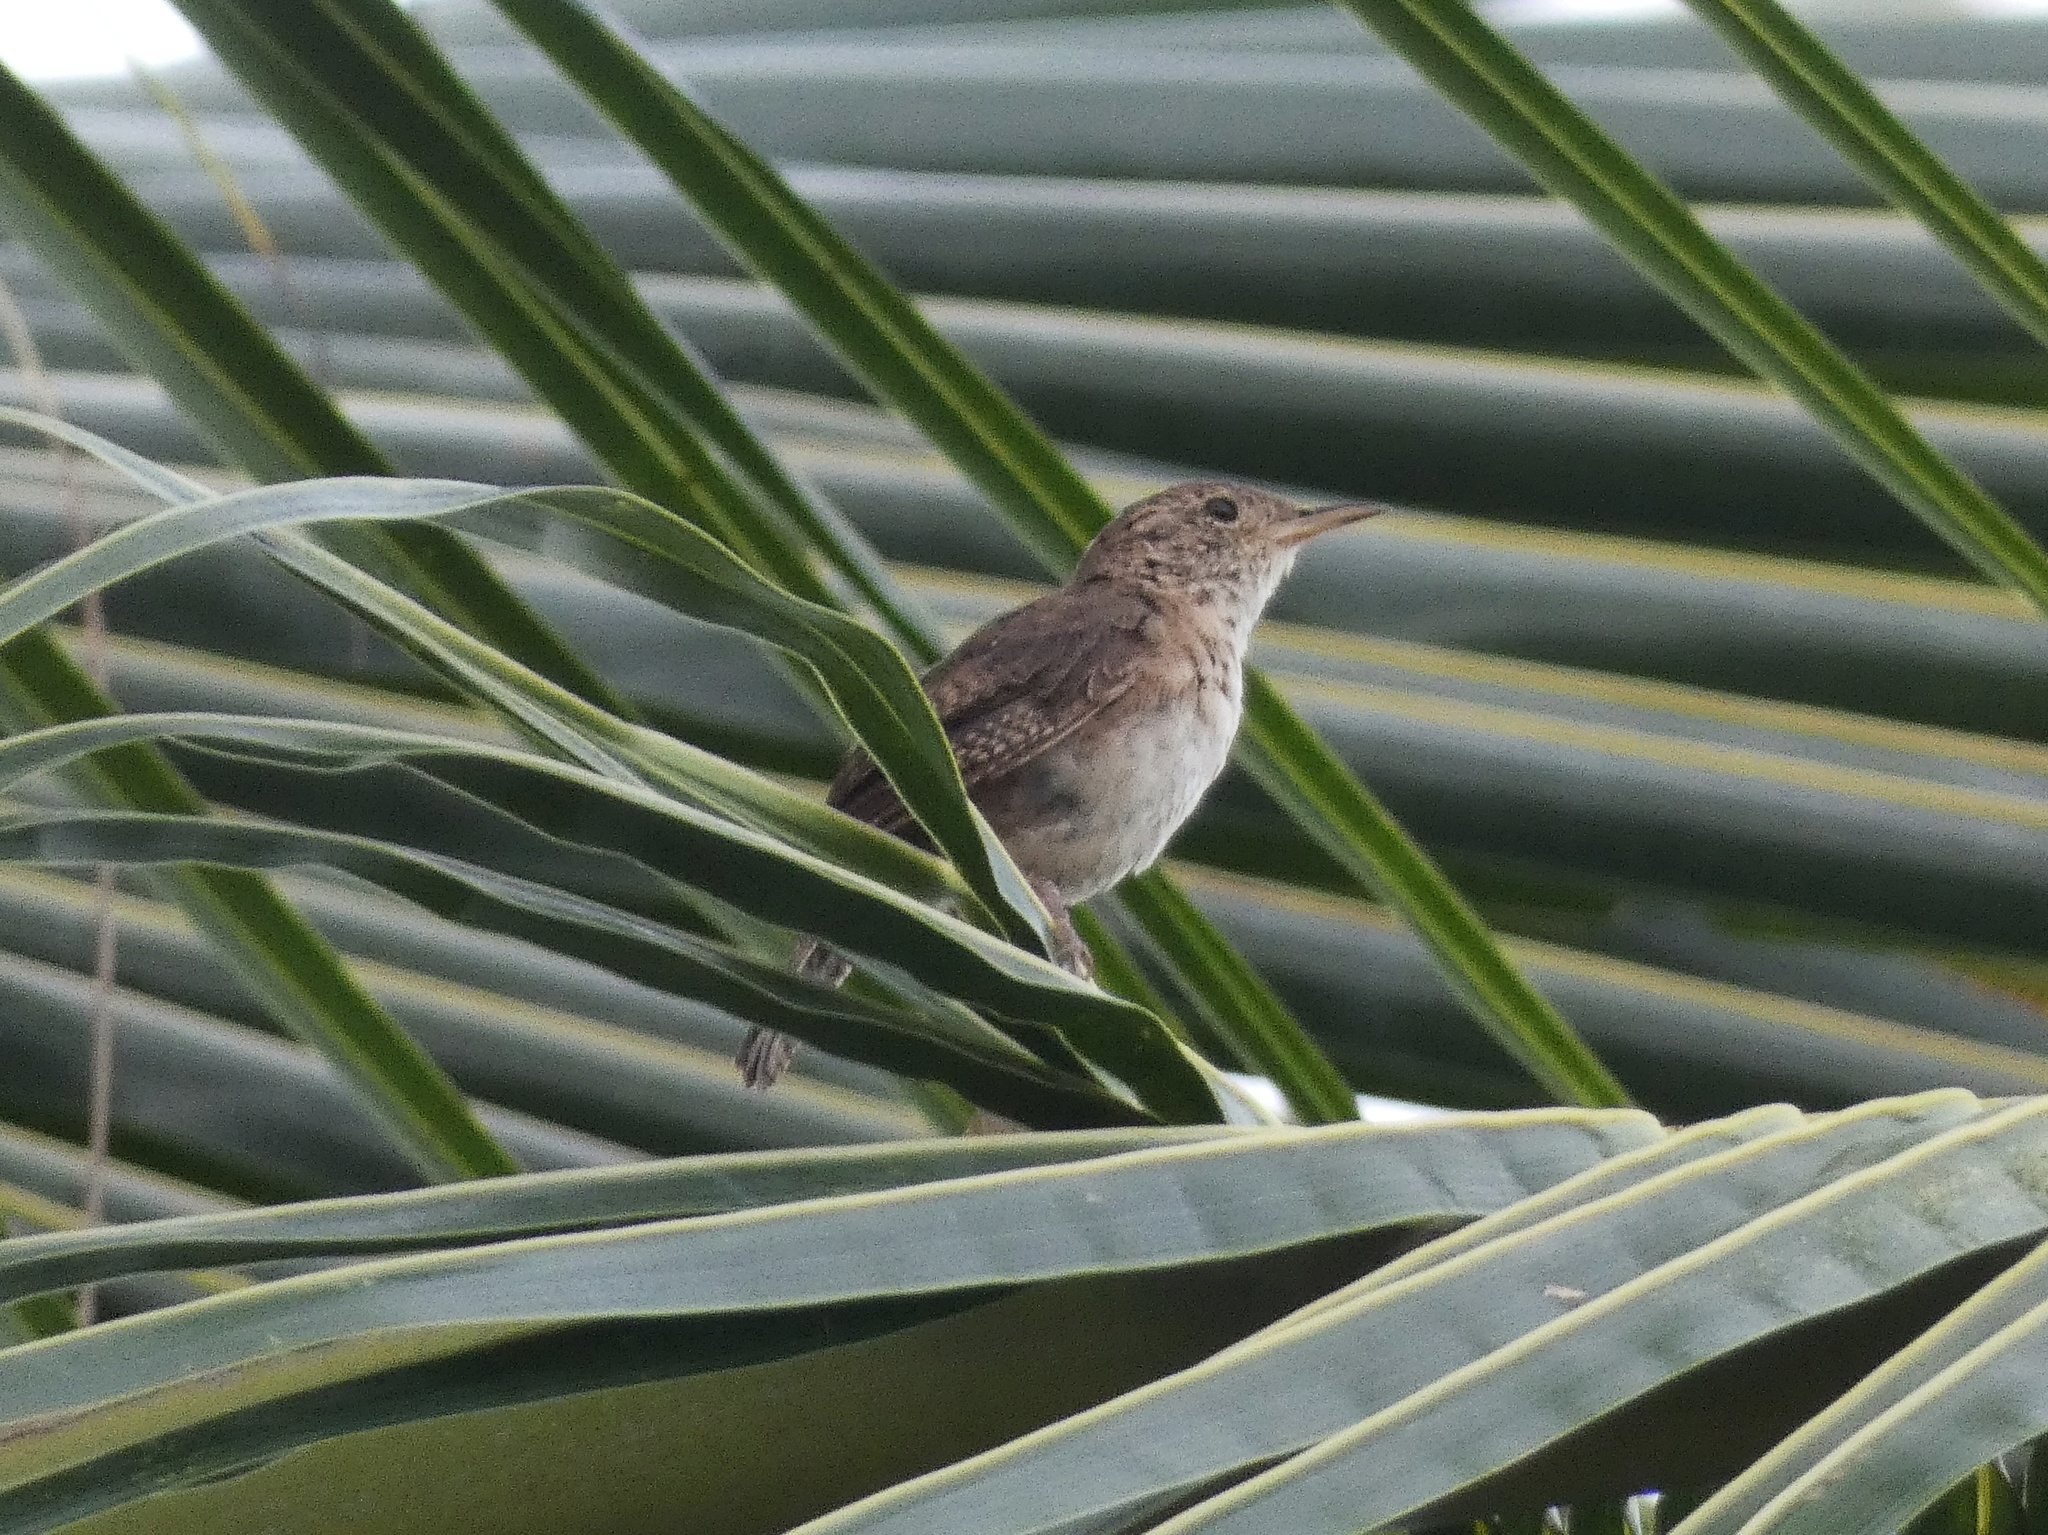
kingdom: Animalia
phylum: Chordata
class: Aves
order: Passeriformes
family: Troglodytidae
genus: Troglodytes
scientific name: Troglodytes aedon
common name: House wren
